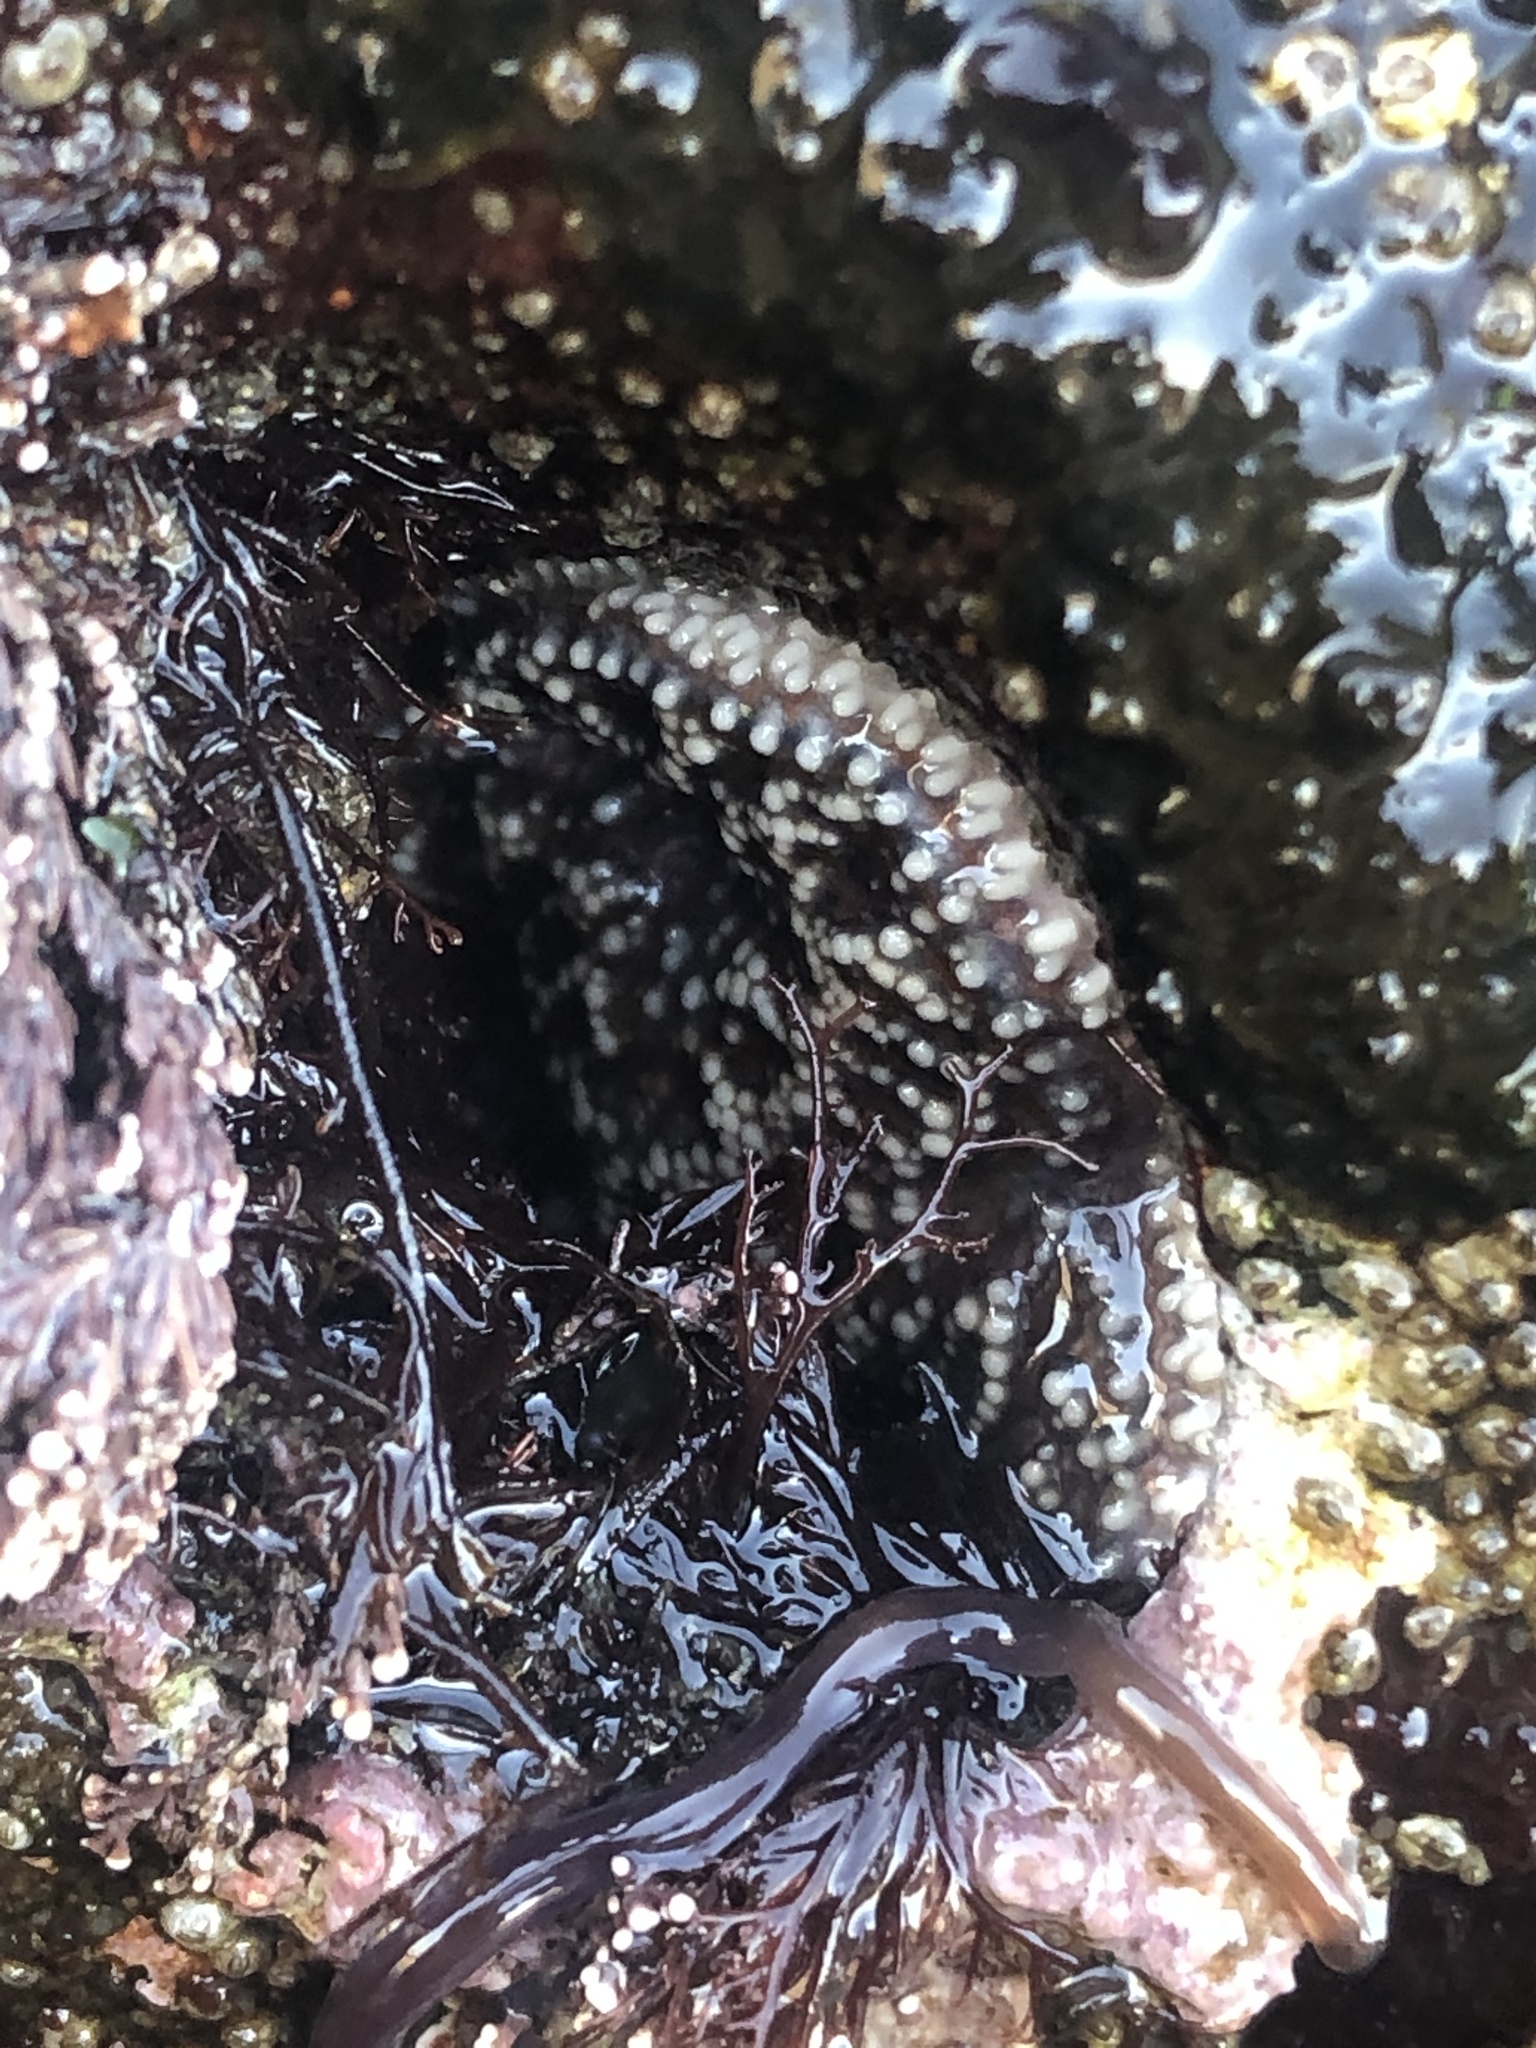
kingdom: Animalia
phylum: Echinodermata
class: Asteroidea
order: Forcipulatida
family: Asteriidae
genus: Pisaster
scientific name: Pisaster ochraceus
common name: Ochre stars
